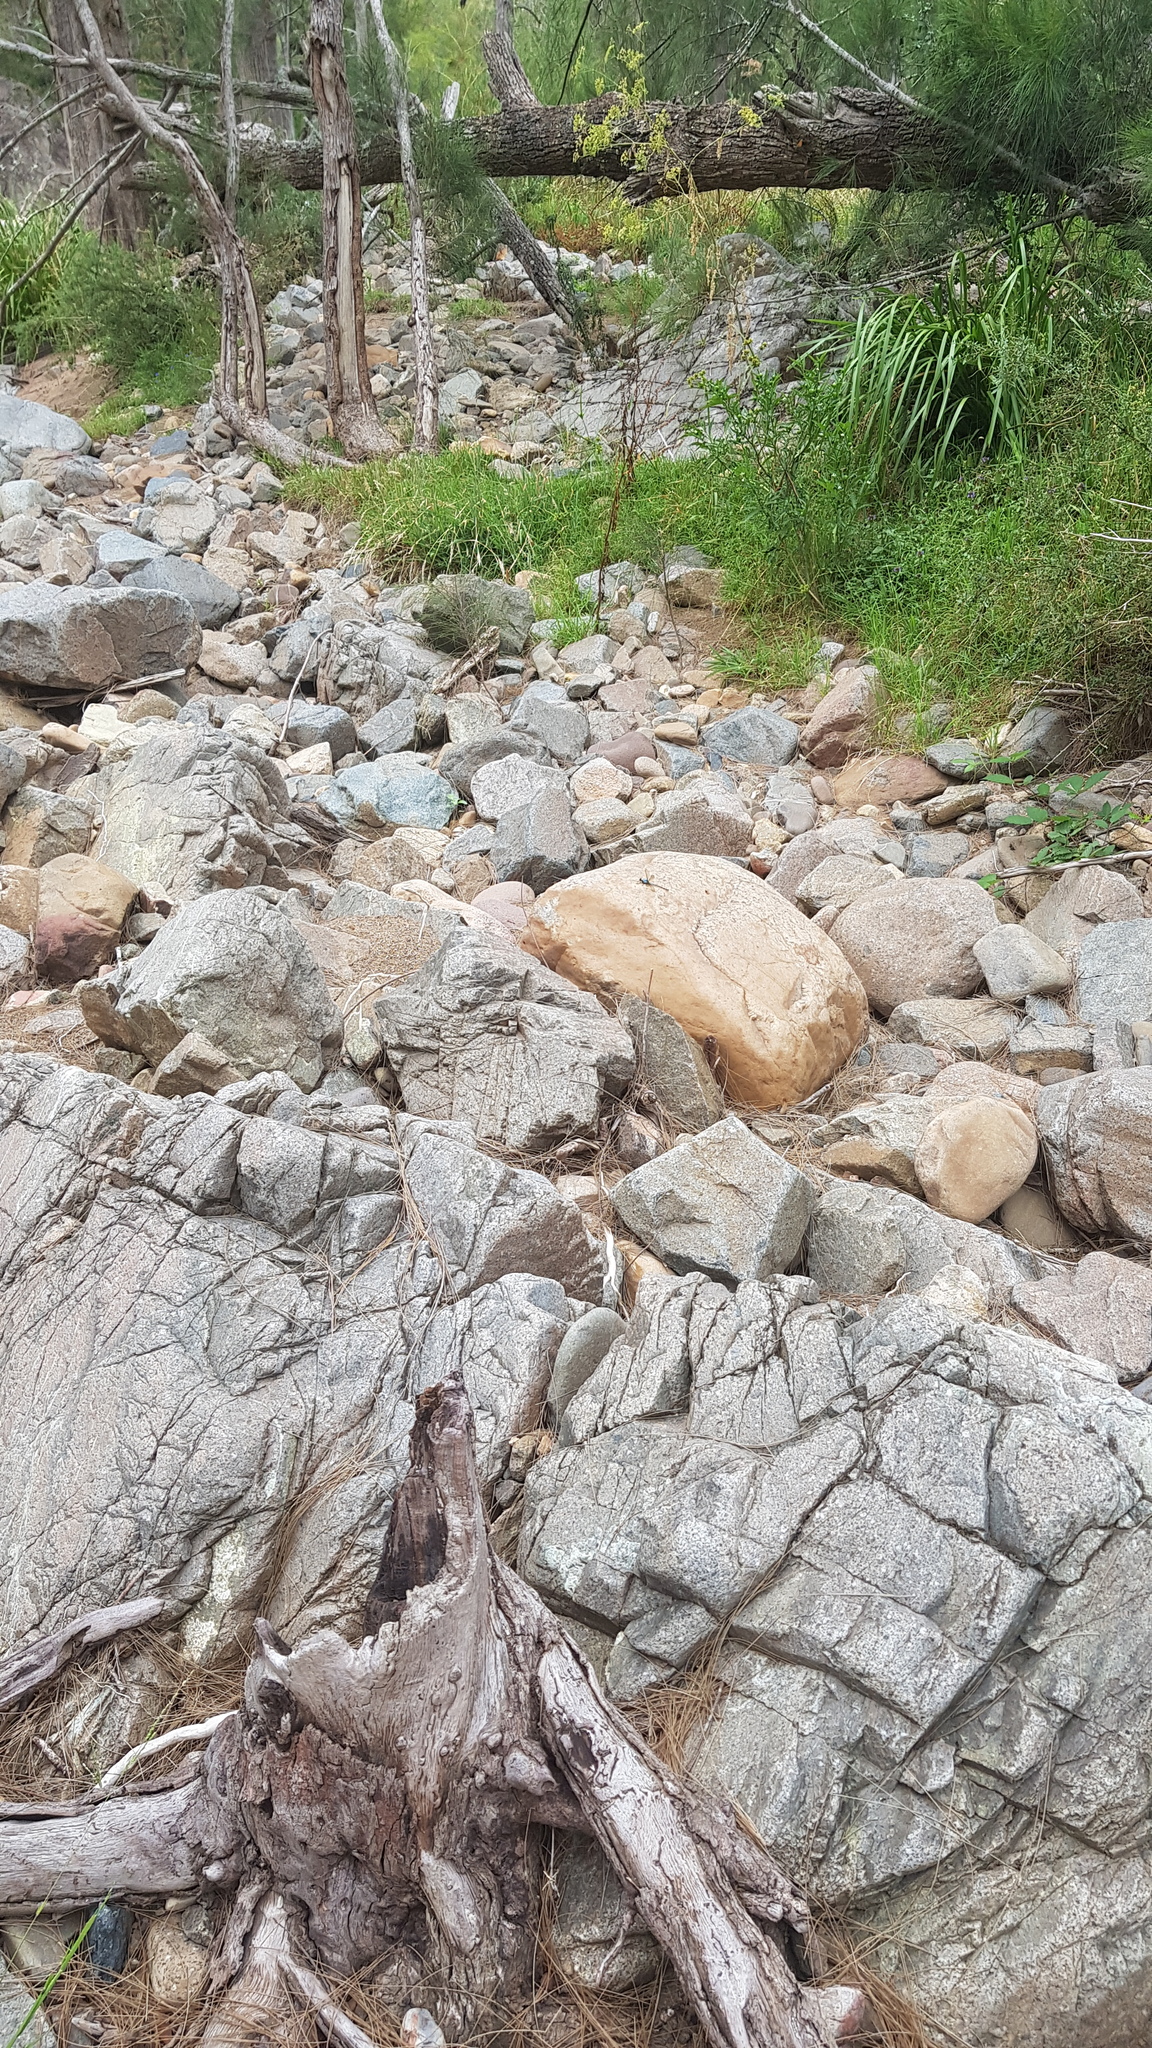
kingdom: Animalia
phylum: Arthropoda
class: Insecta
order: Odonata
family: Lestoideidae
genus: Diphlebia
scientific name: Diphlebia nymphoides
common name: Arrowhead rockmaster
